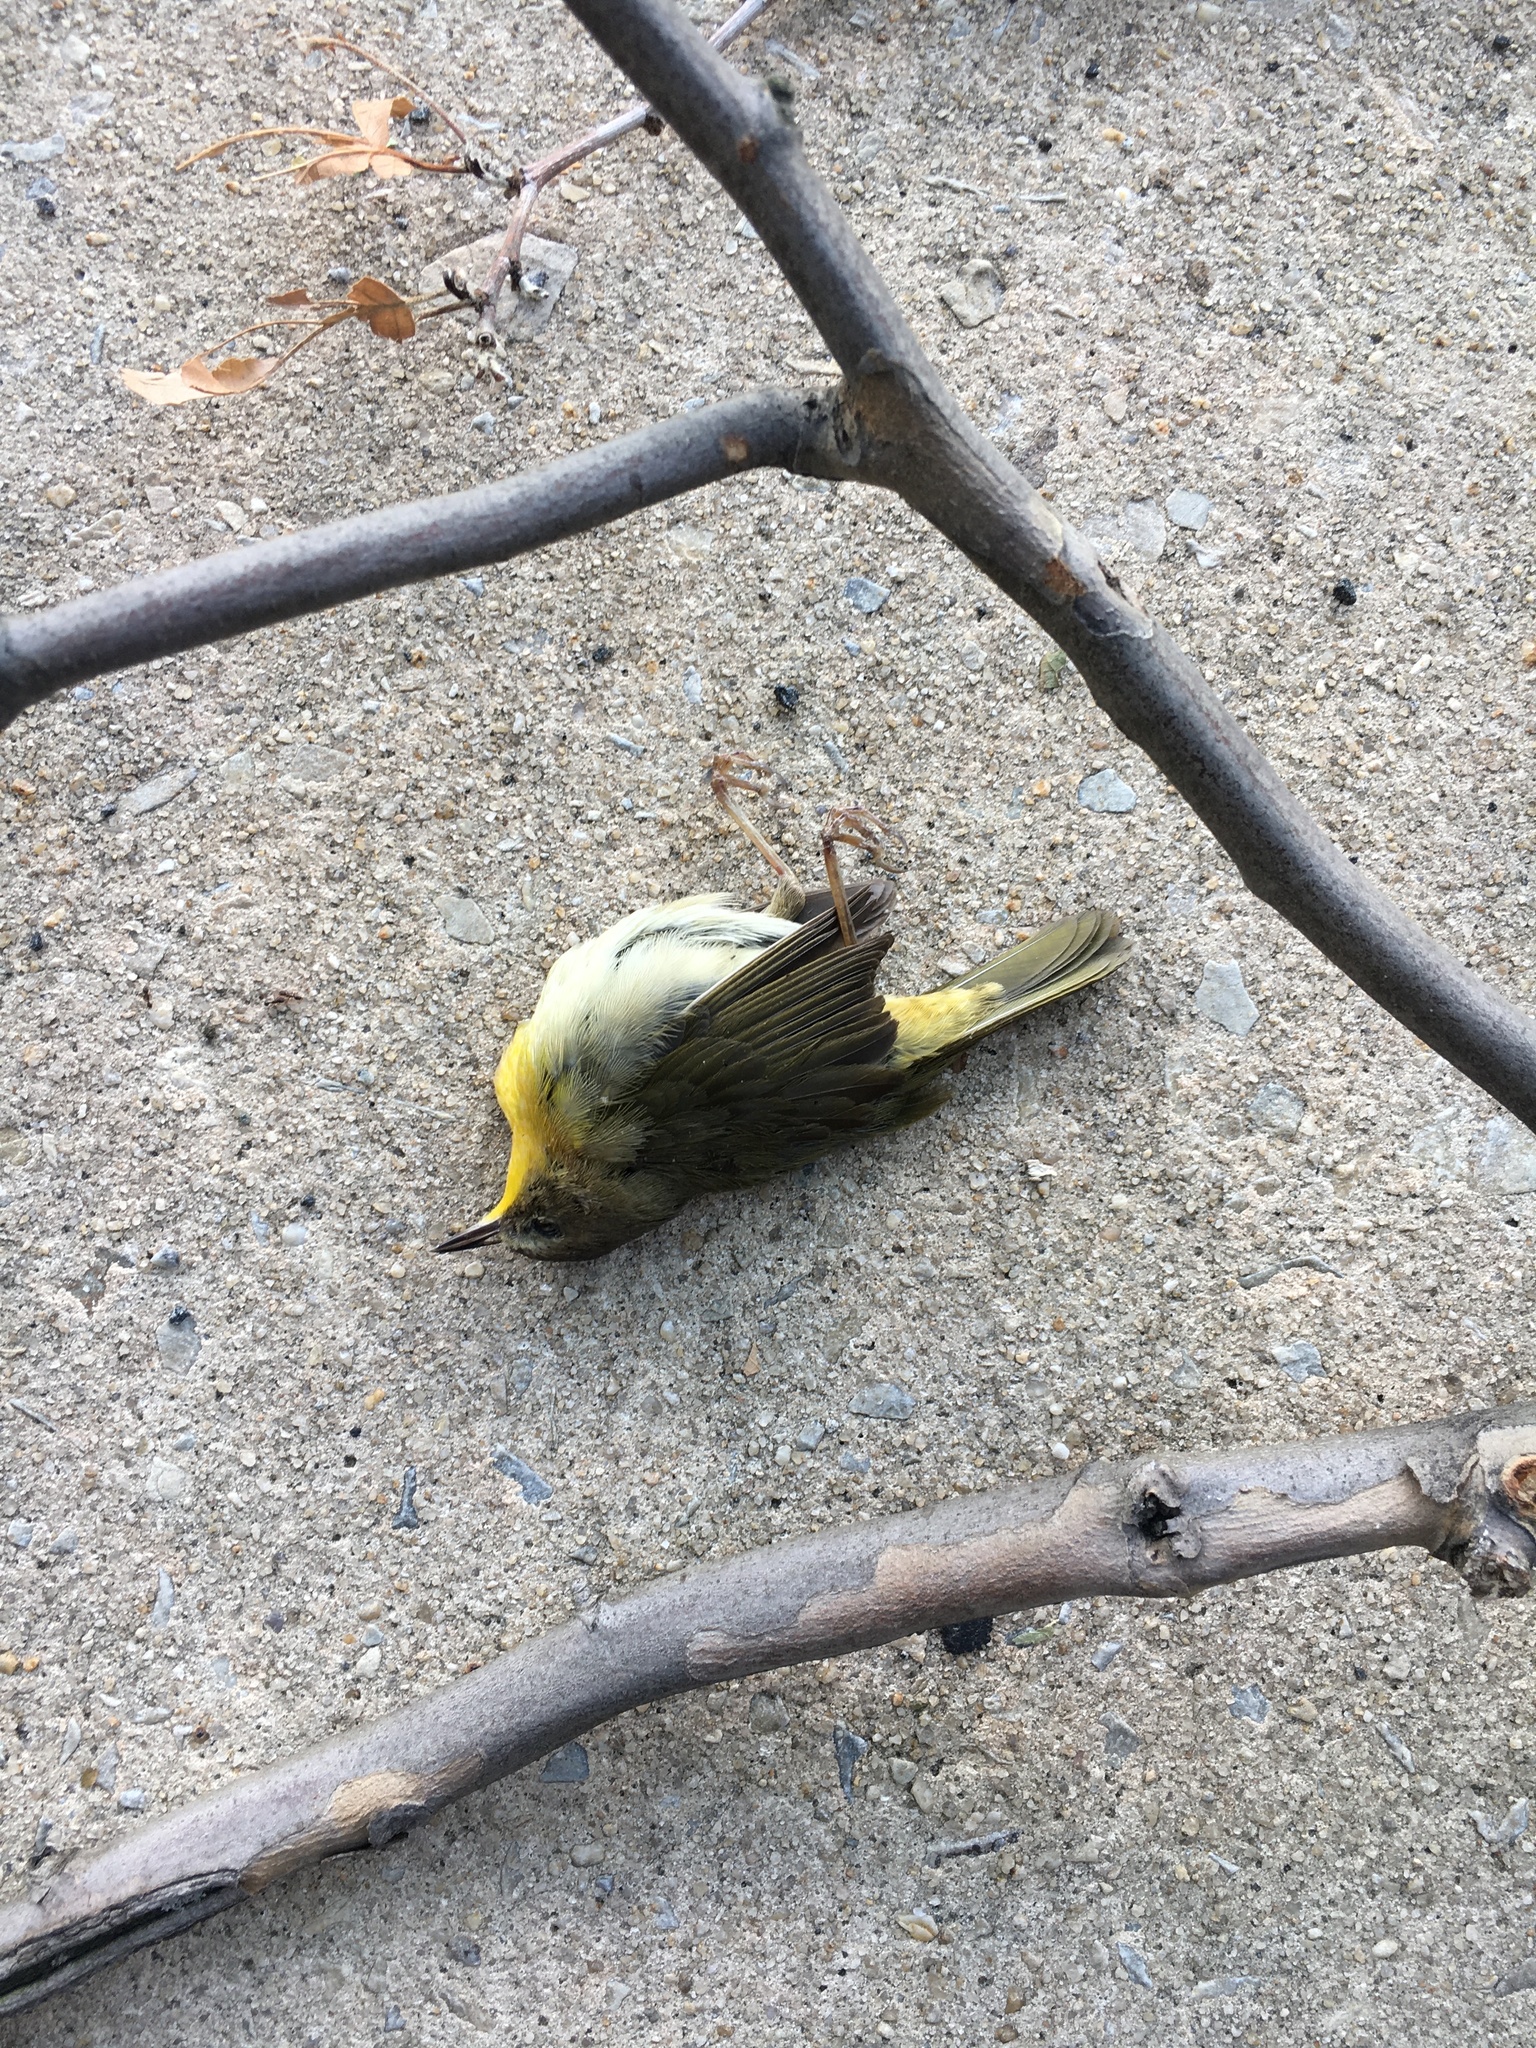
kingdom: Animalia
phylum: Chordata
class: Aves
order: Passeriformes
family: Parulidae
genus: Geothlypis
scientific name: Geothlypis trichas
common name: Common yellowthroat
